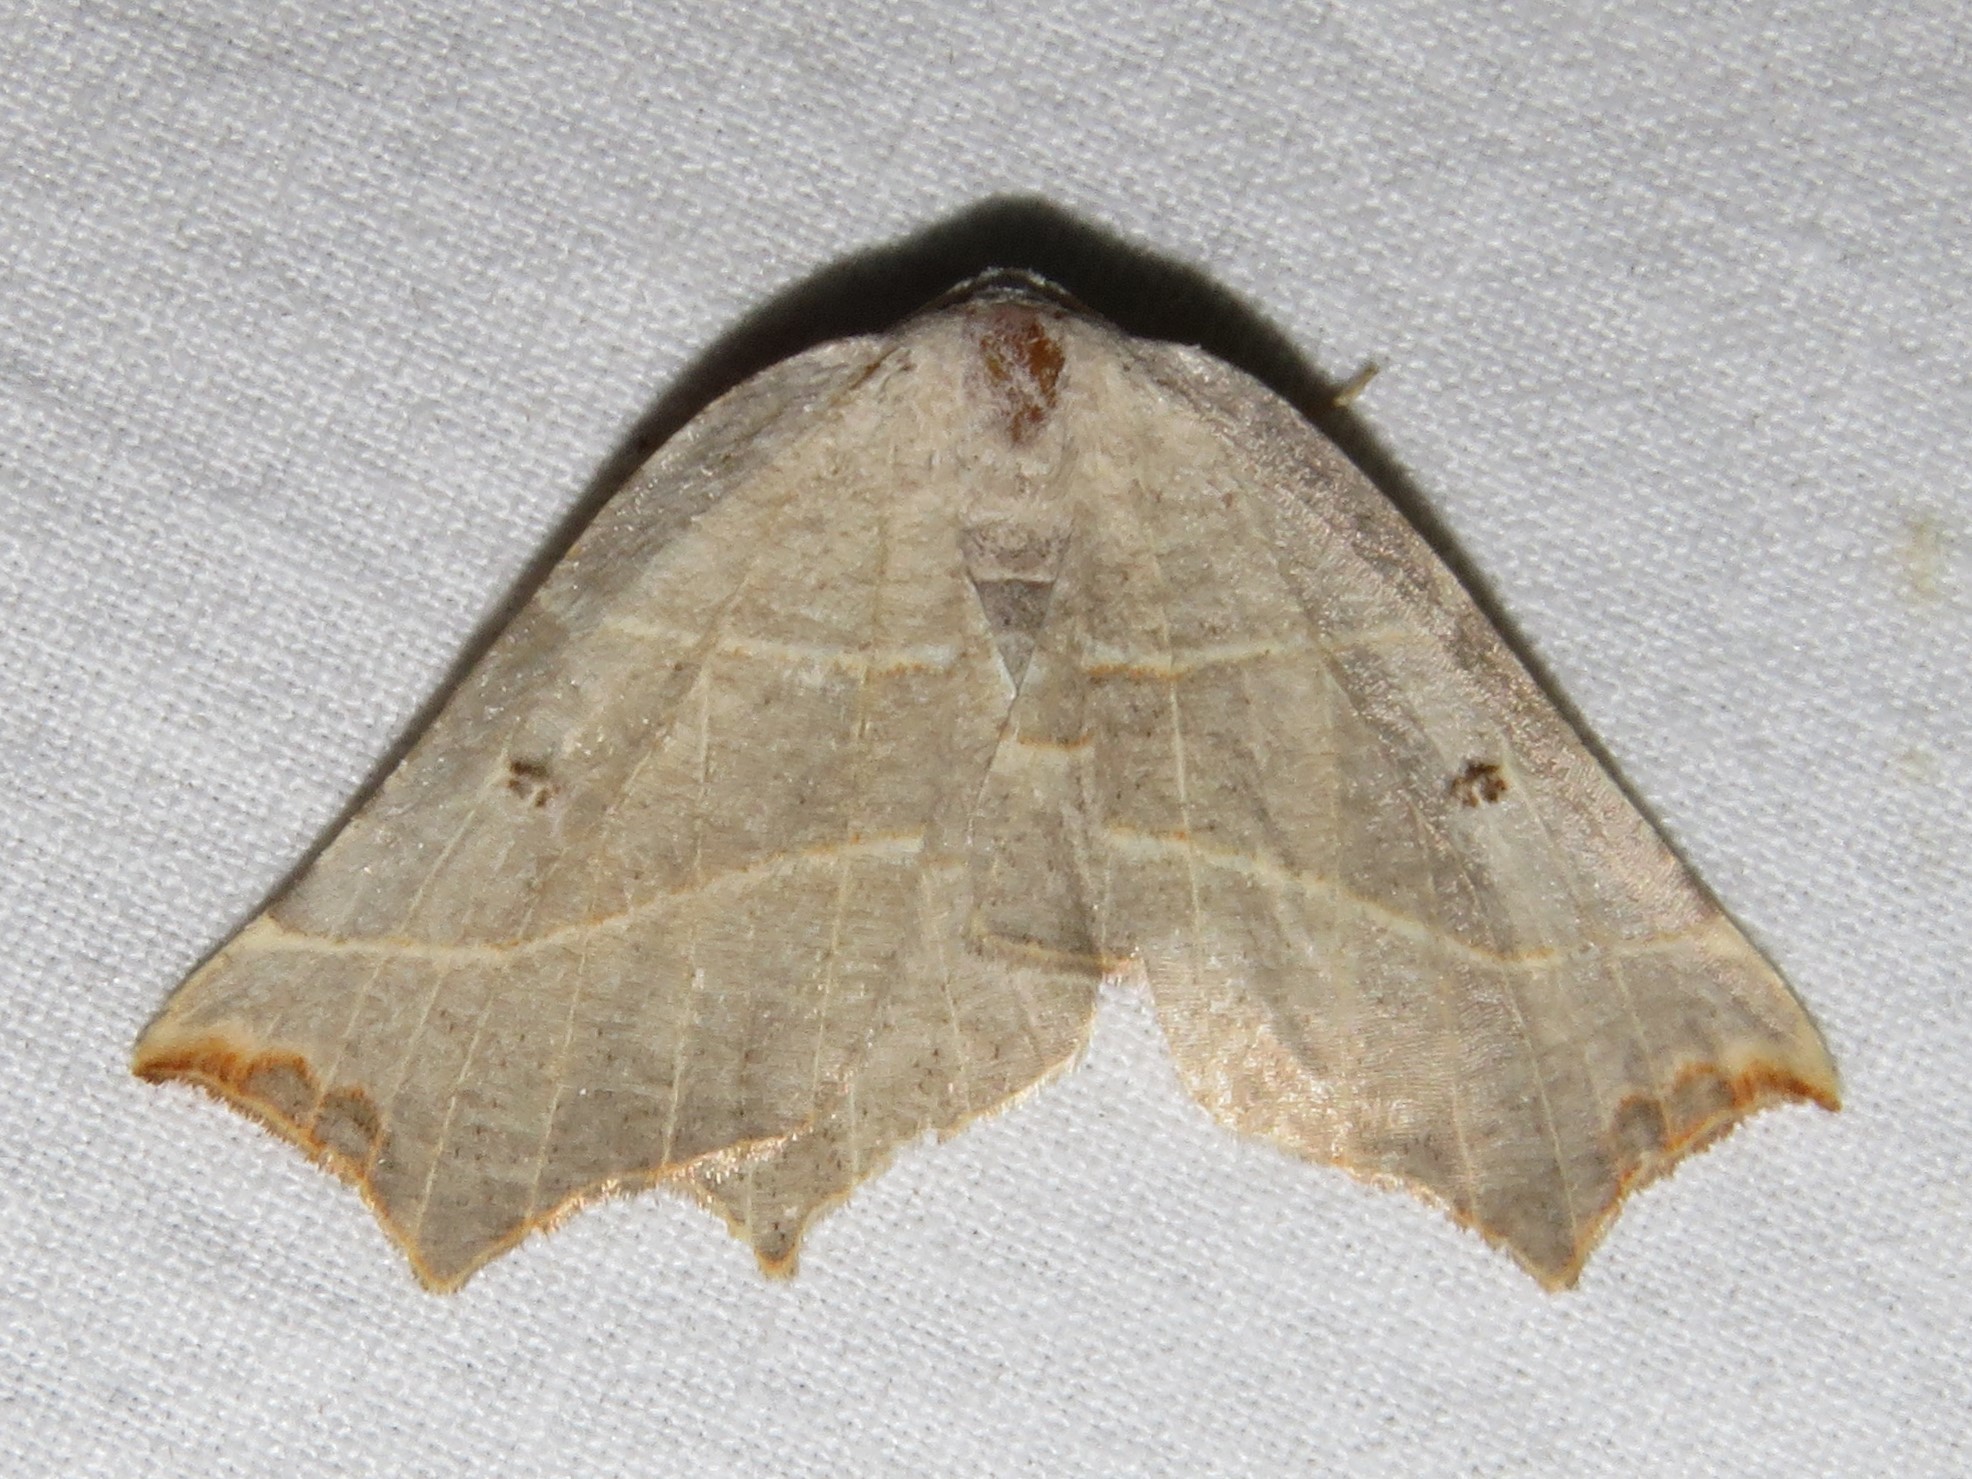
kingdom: Animalia
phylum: Arthropoda
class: Insecta
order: Lepidoptera
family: Geometridae
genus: Metanema
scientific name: Metanema inatomaria
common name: Pale metanema
